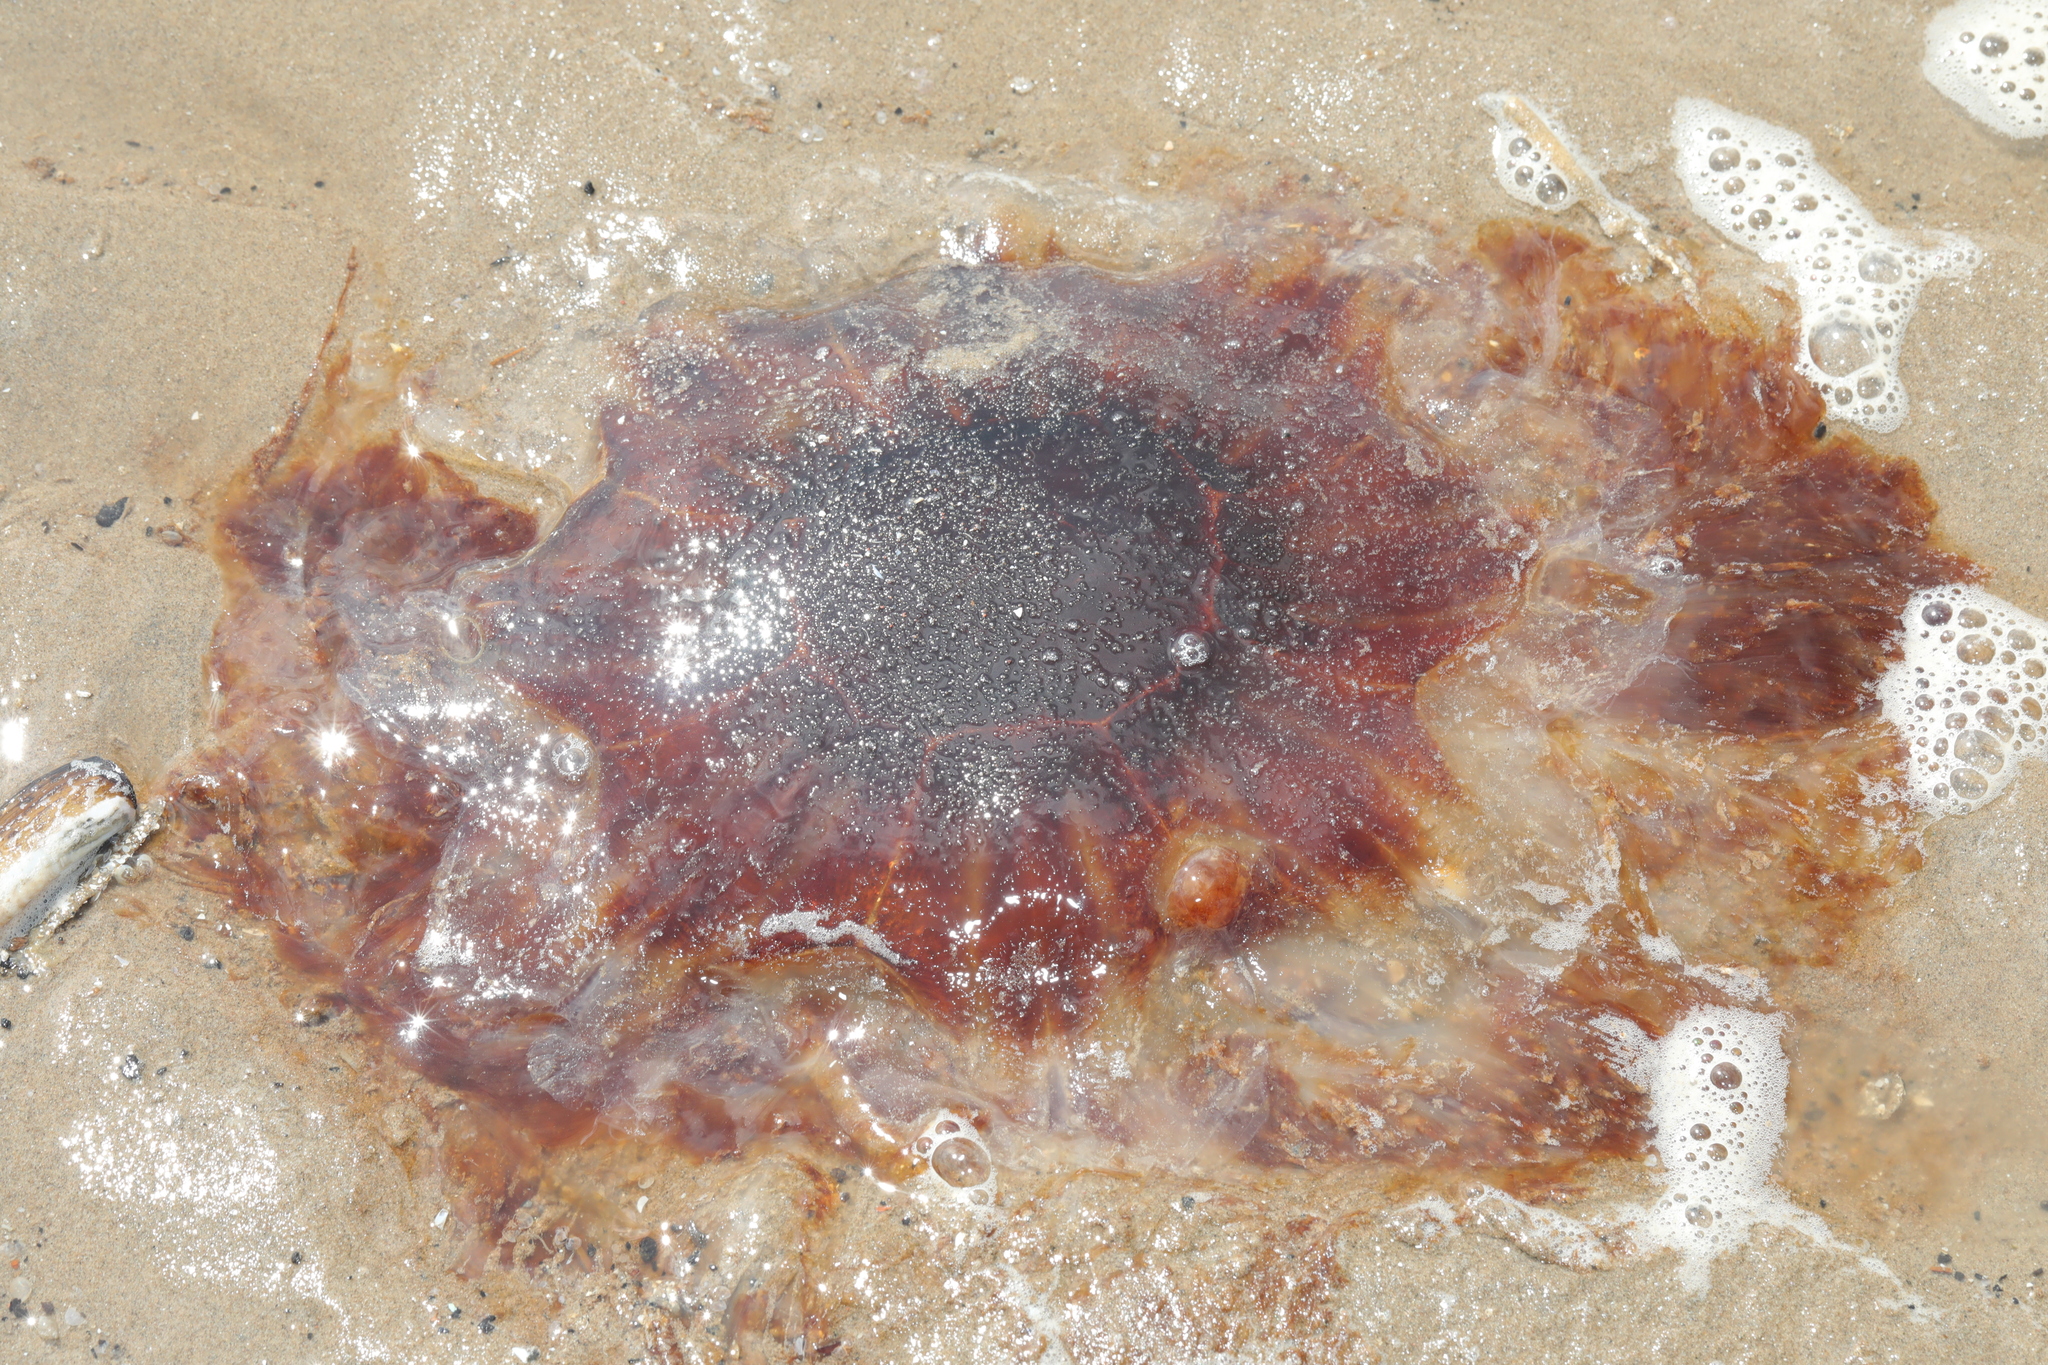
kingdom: Animalia
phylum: Cnidaria
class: Scyphozoa
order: Semaeostomeae
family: Cyaneidae
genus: Cyanea
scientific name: Cyanea capillata
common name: Lion's mane jellyfish
